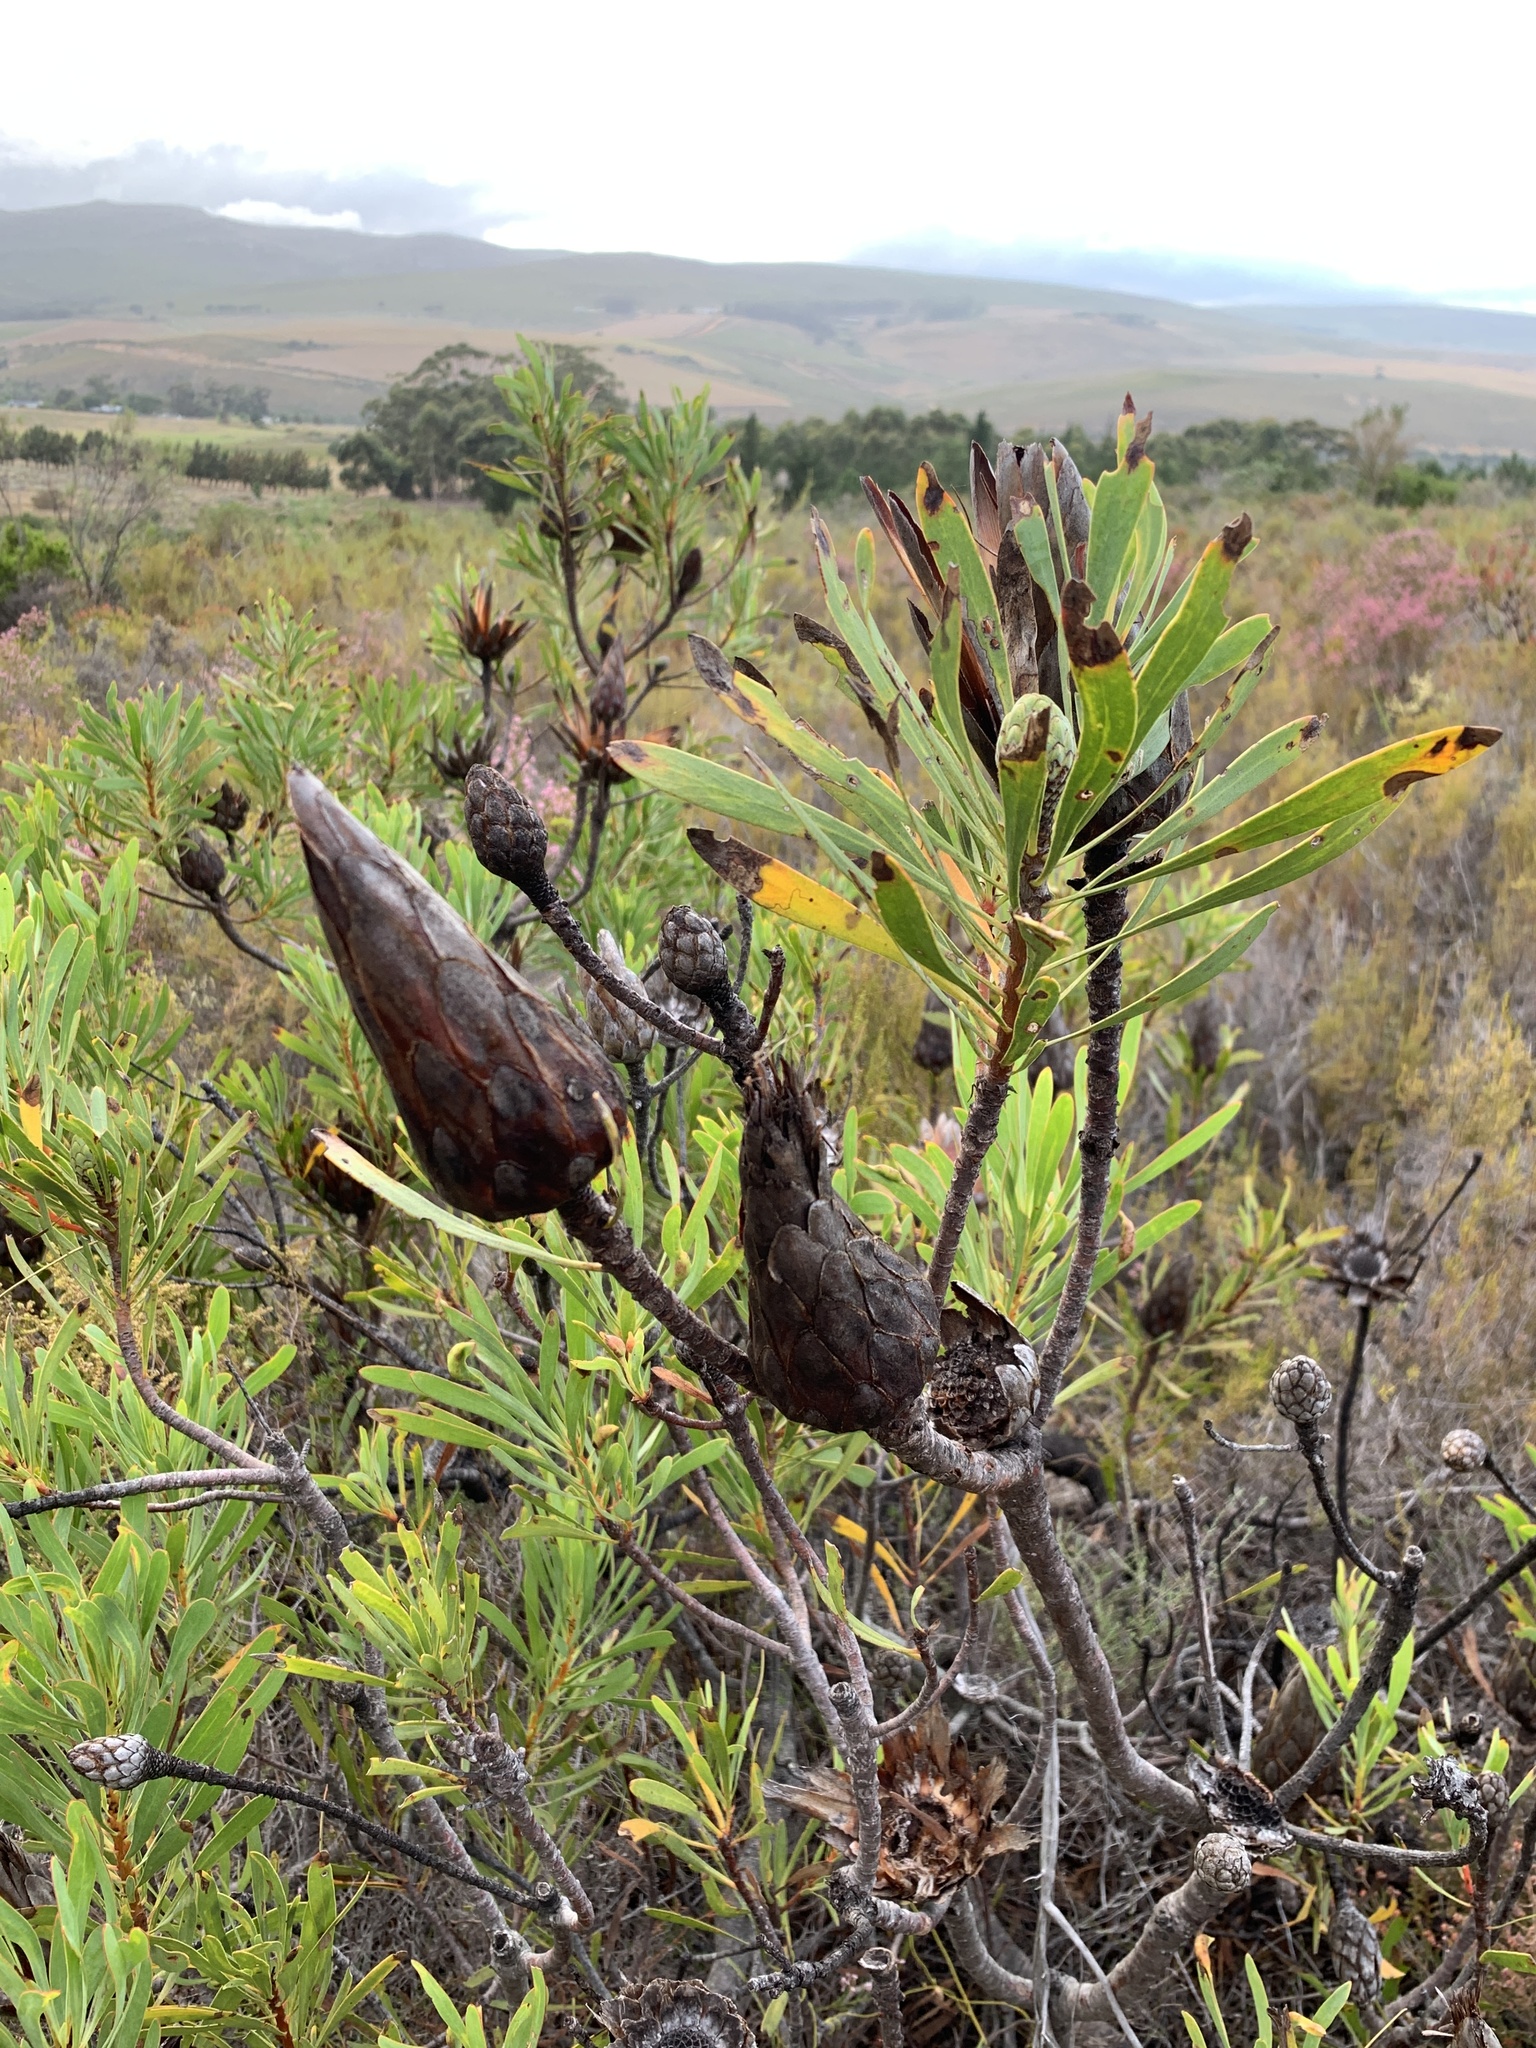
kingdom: Plantae
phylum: Tracheophyta
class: Magnoliopsida
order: Proteales
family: Proteaceae
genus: Protea
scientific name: Protea repens
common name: Sugarbush
